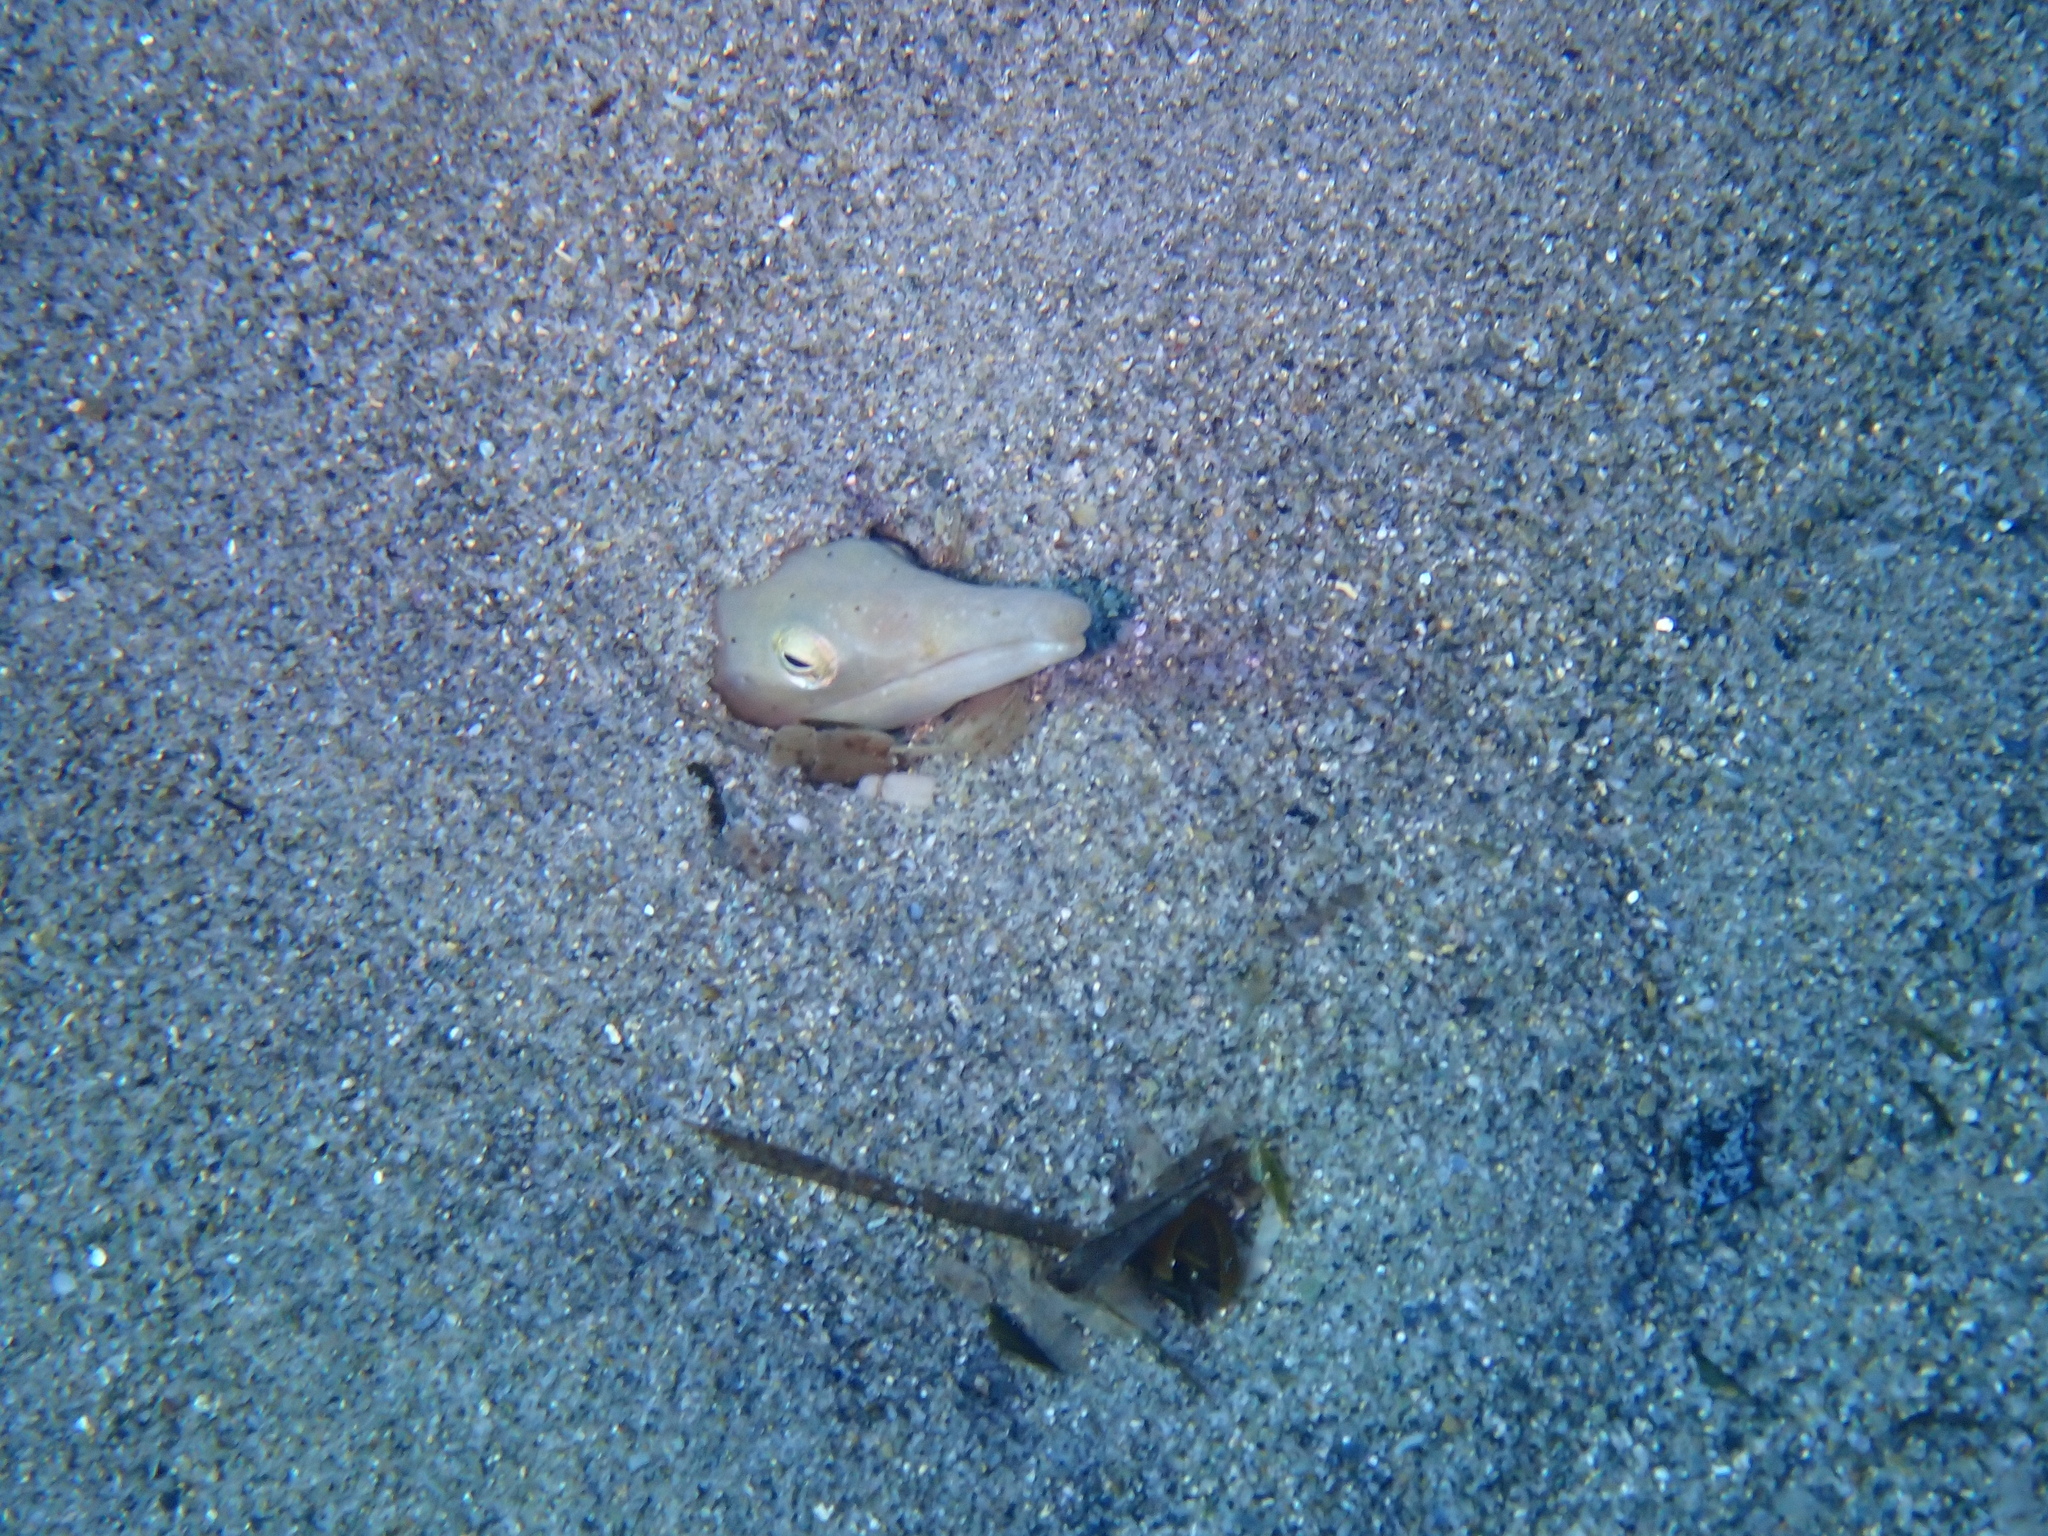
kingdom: Animalia
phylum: Chordata
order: Anguilliformes
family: Ophichthidae
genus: Ophisurus
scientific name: Ophisurus serpens
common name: Serpent eel
